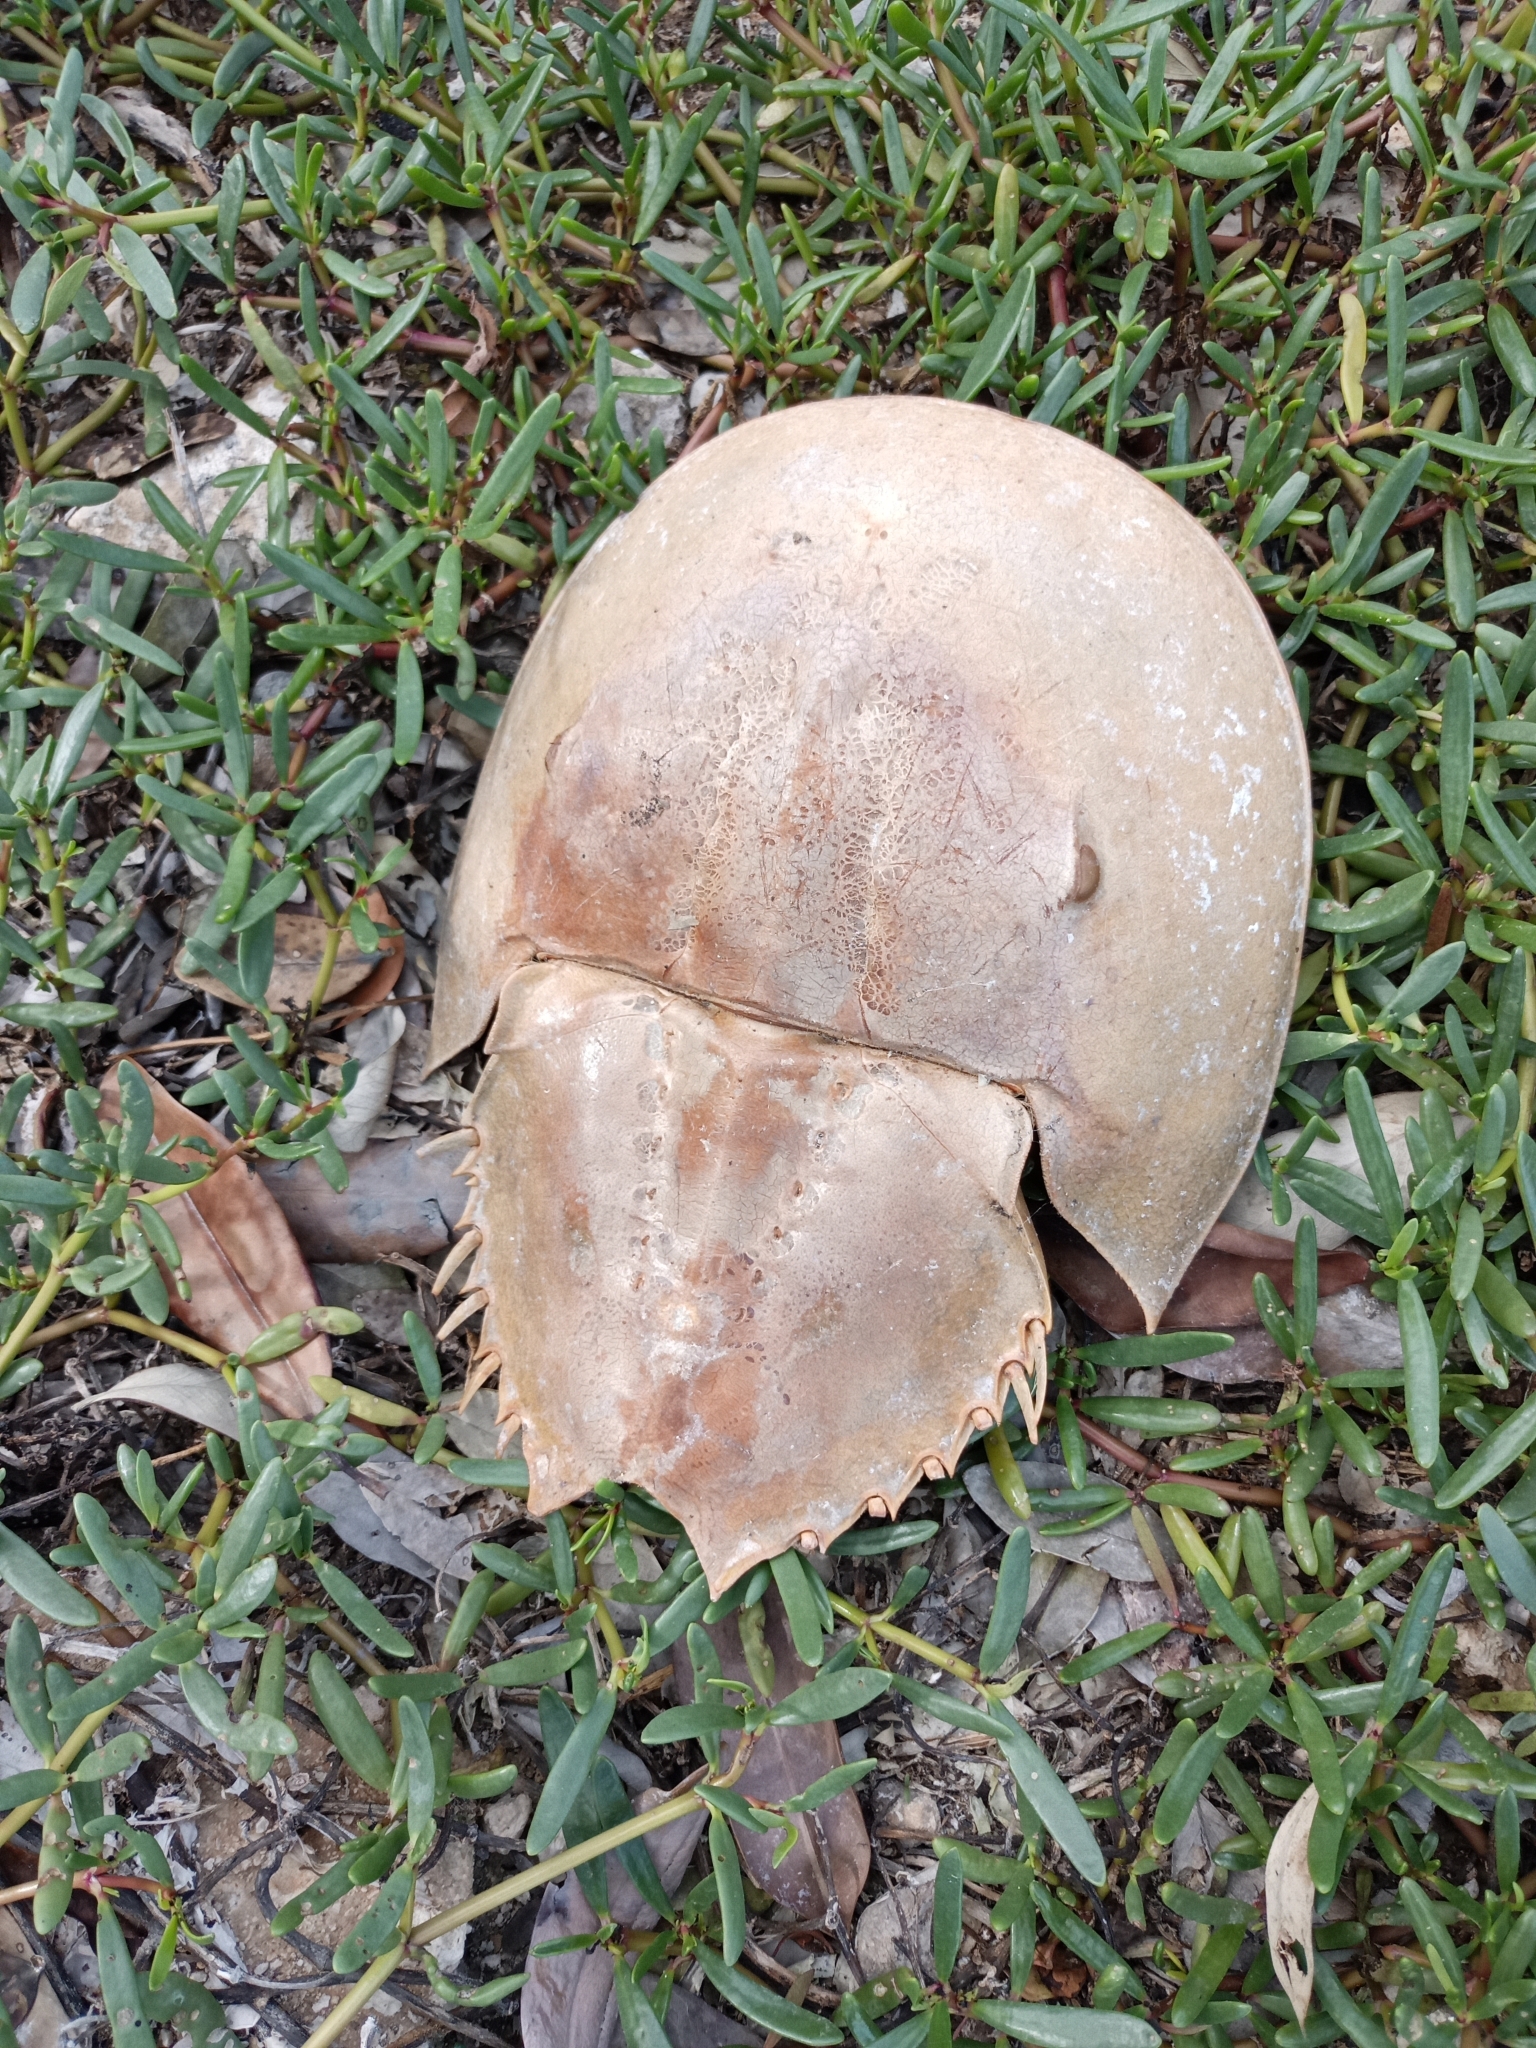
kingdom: Animalia
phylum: Arthropoda
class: Merostomata
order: Xiphosurida
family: Limulidae
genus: Limulus
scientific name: Limulus polyphemus
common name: Horseshoe crab
